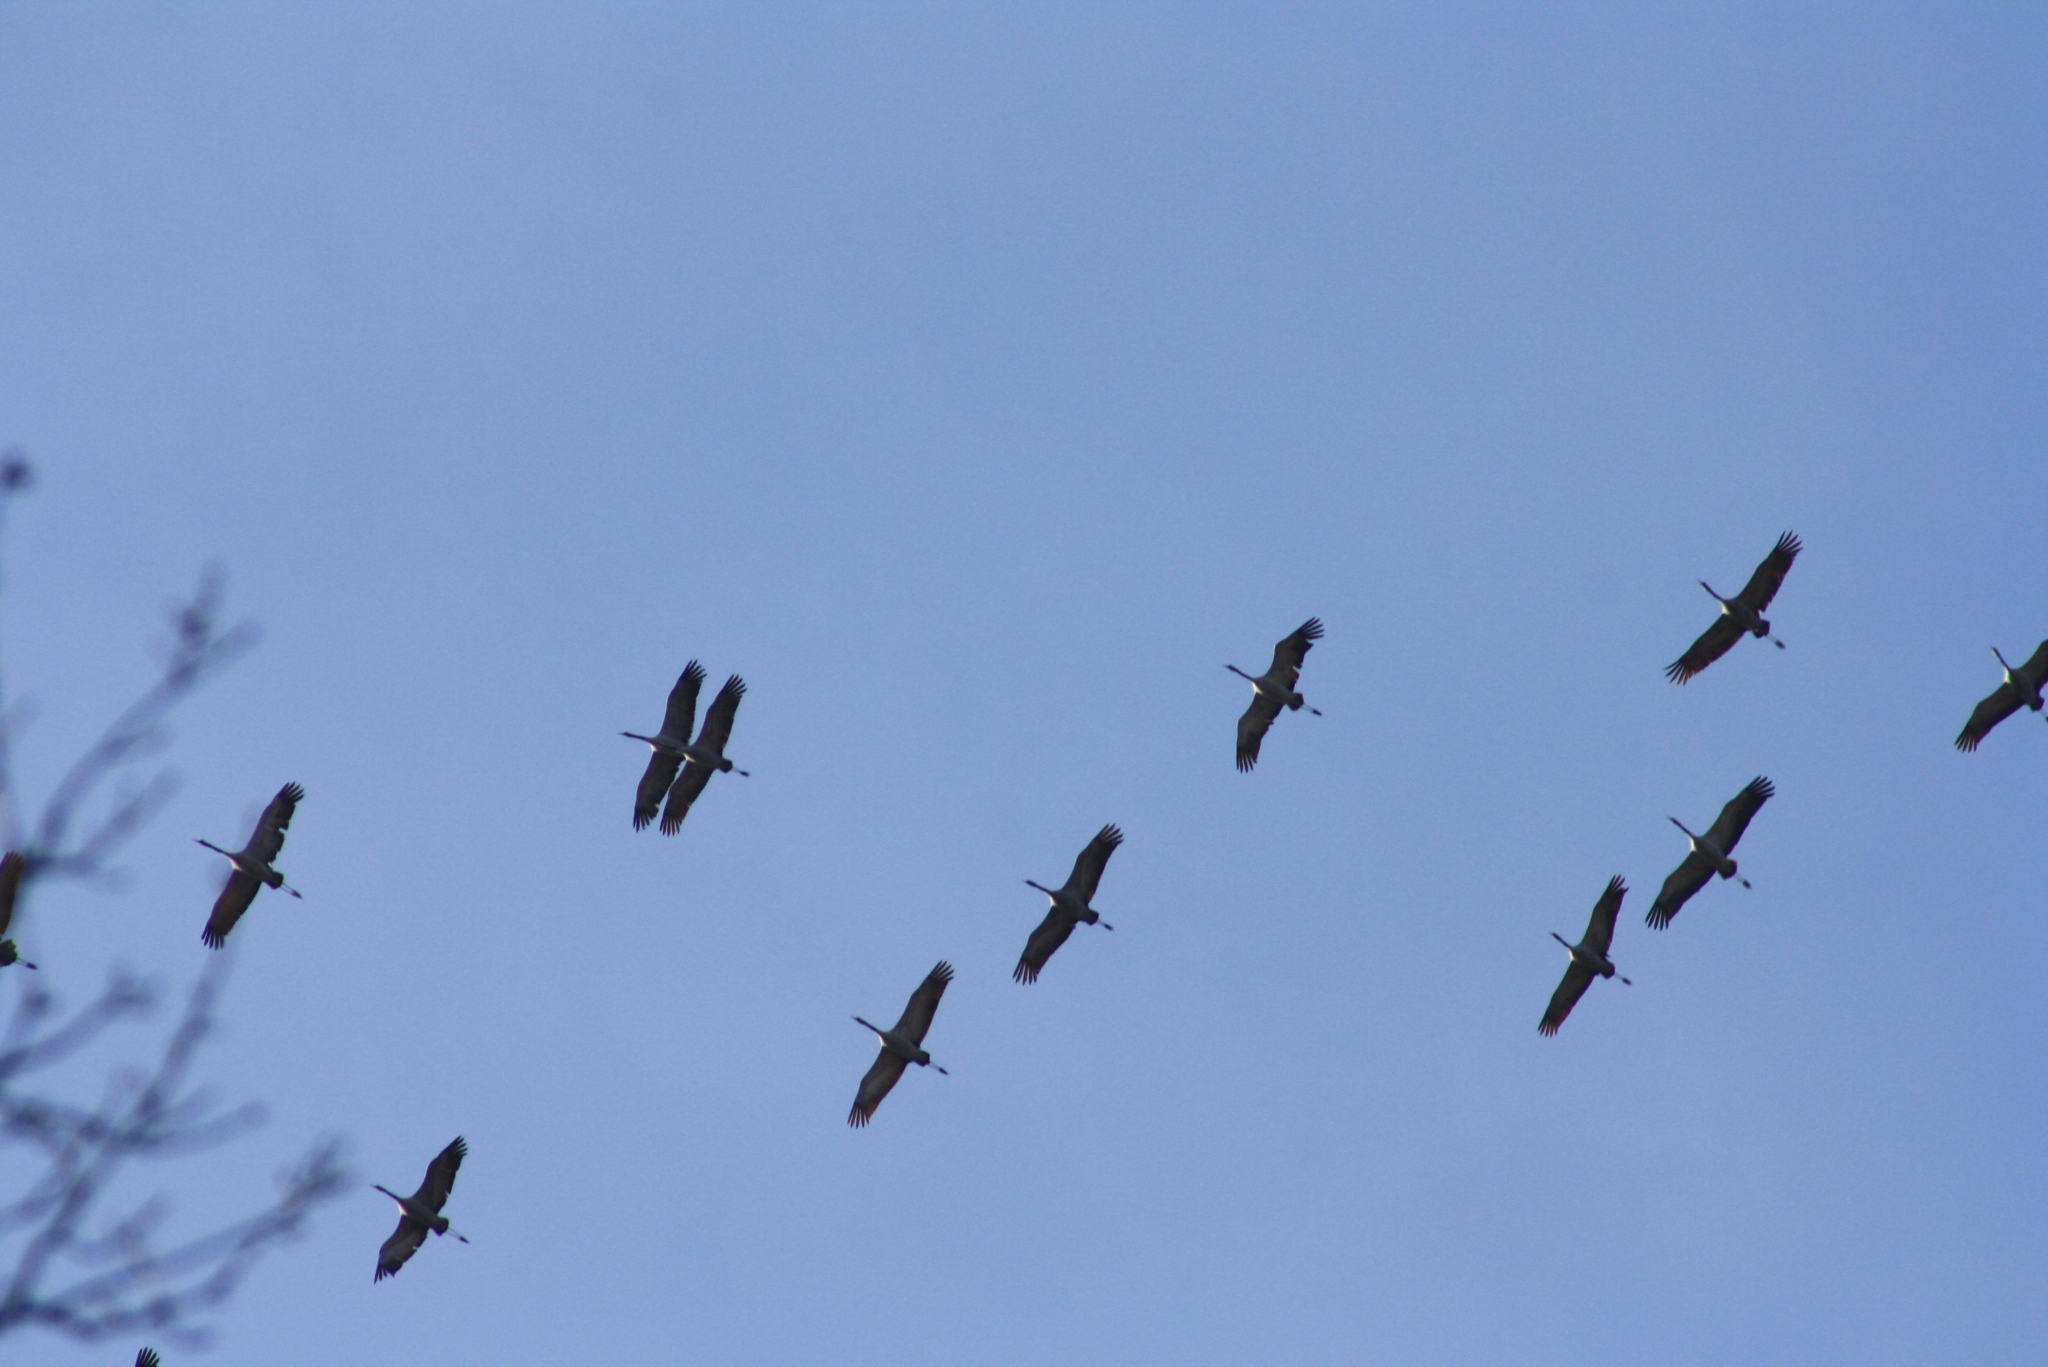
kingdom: Animalia
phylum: Chordata
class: Aves
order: Gruiformes
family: Gruidae
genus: Grus
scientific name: Grus grus
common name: Common crane
